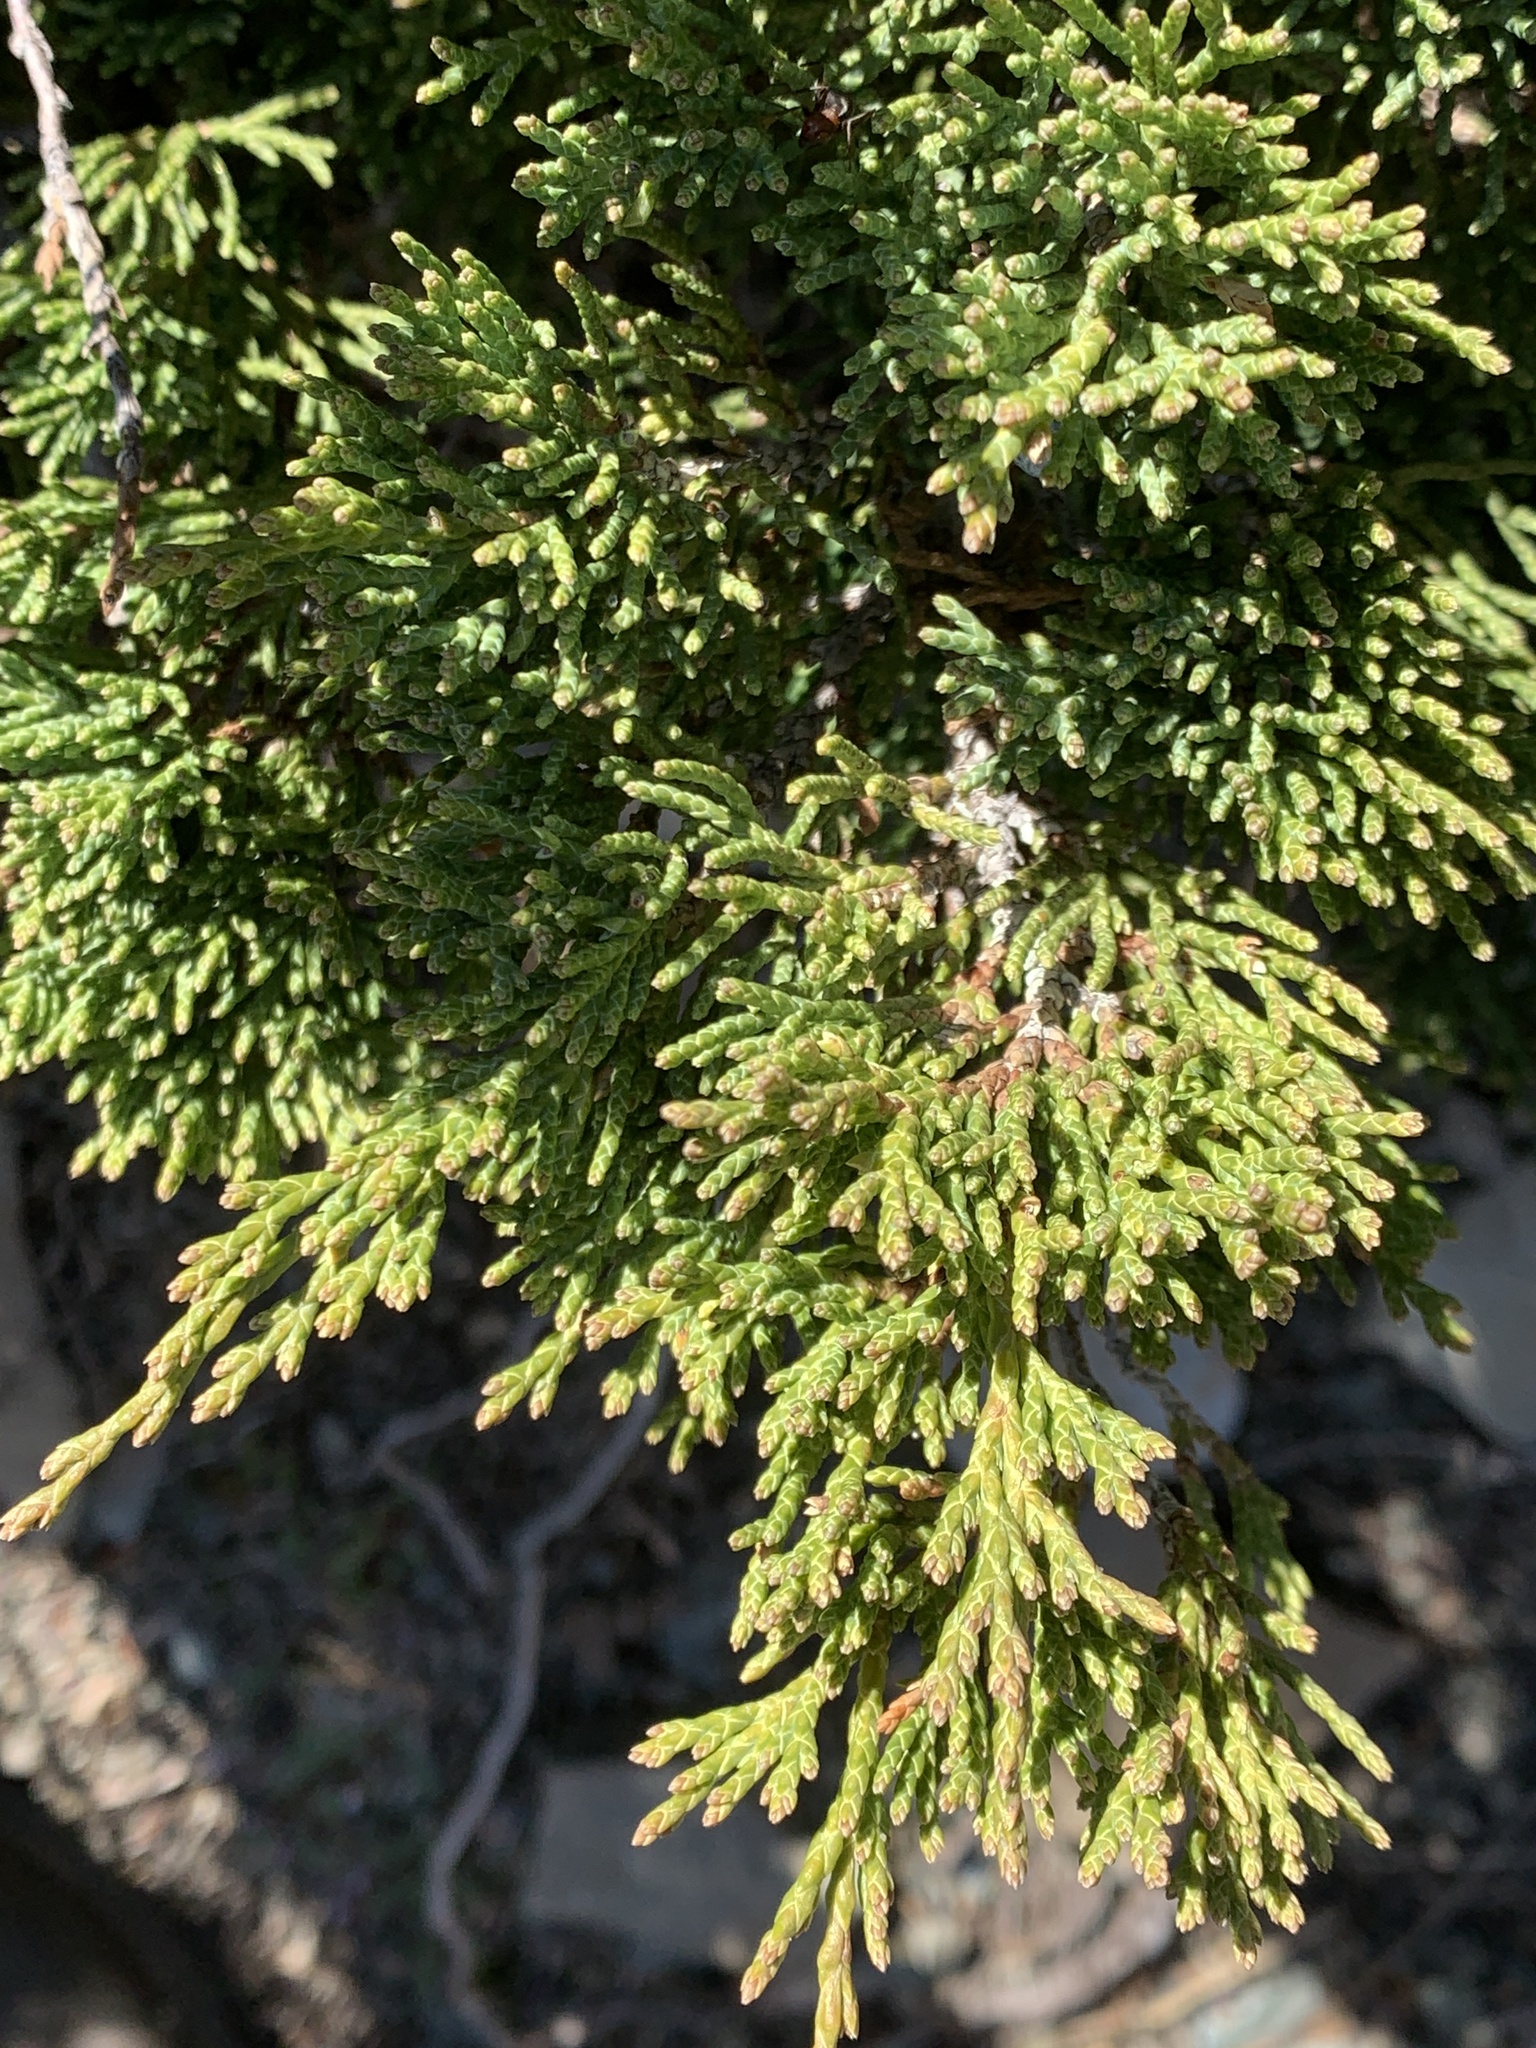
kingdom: Plantae
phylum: Tracheophyta
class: Pinopsida
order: Pinales
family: Cupressaceae
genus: Juniperus
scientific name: Juniperus horizontalis
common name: Creeping juniper
